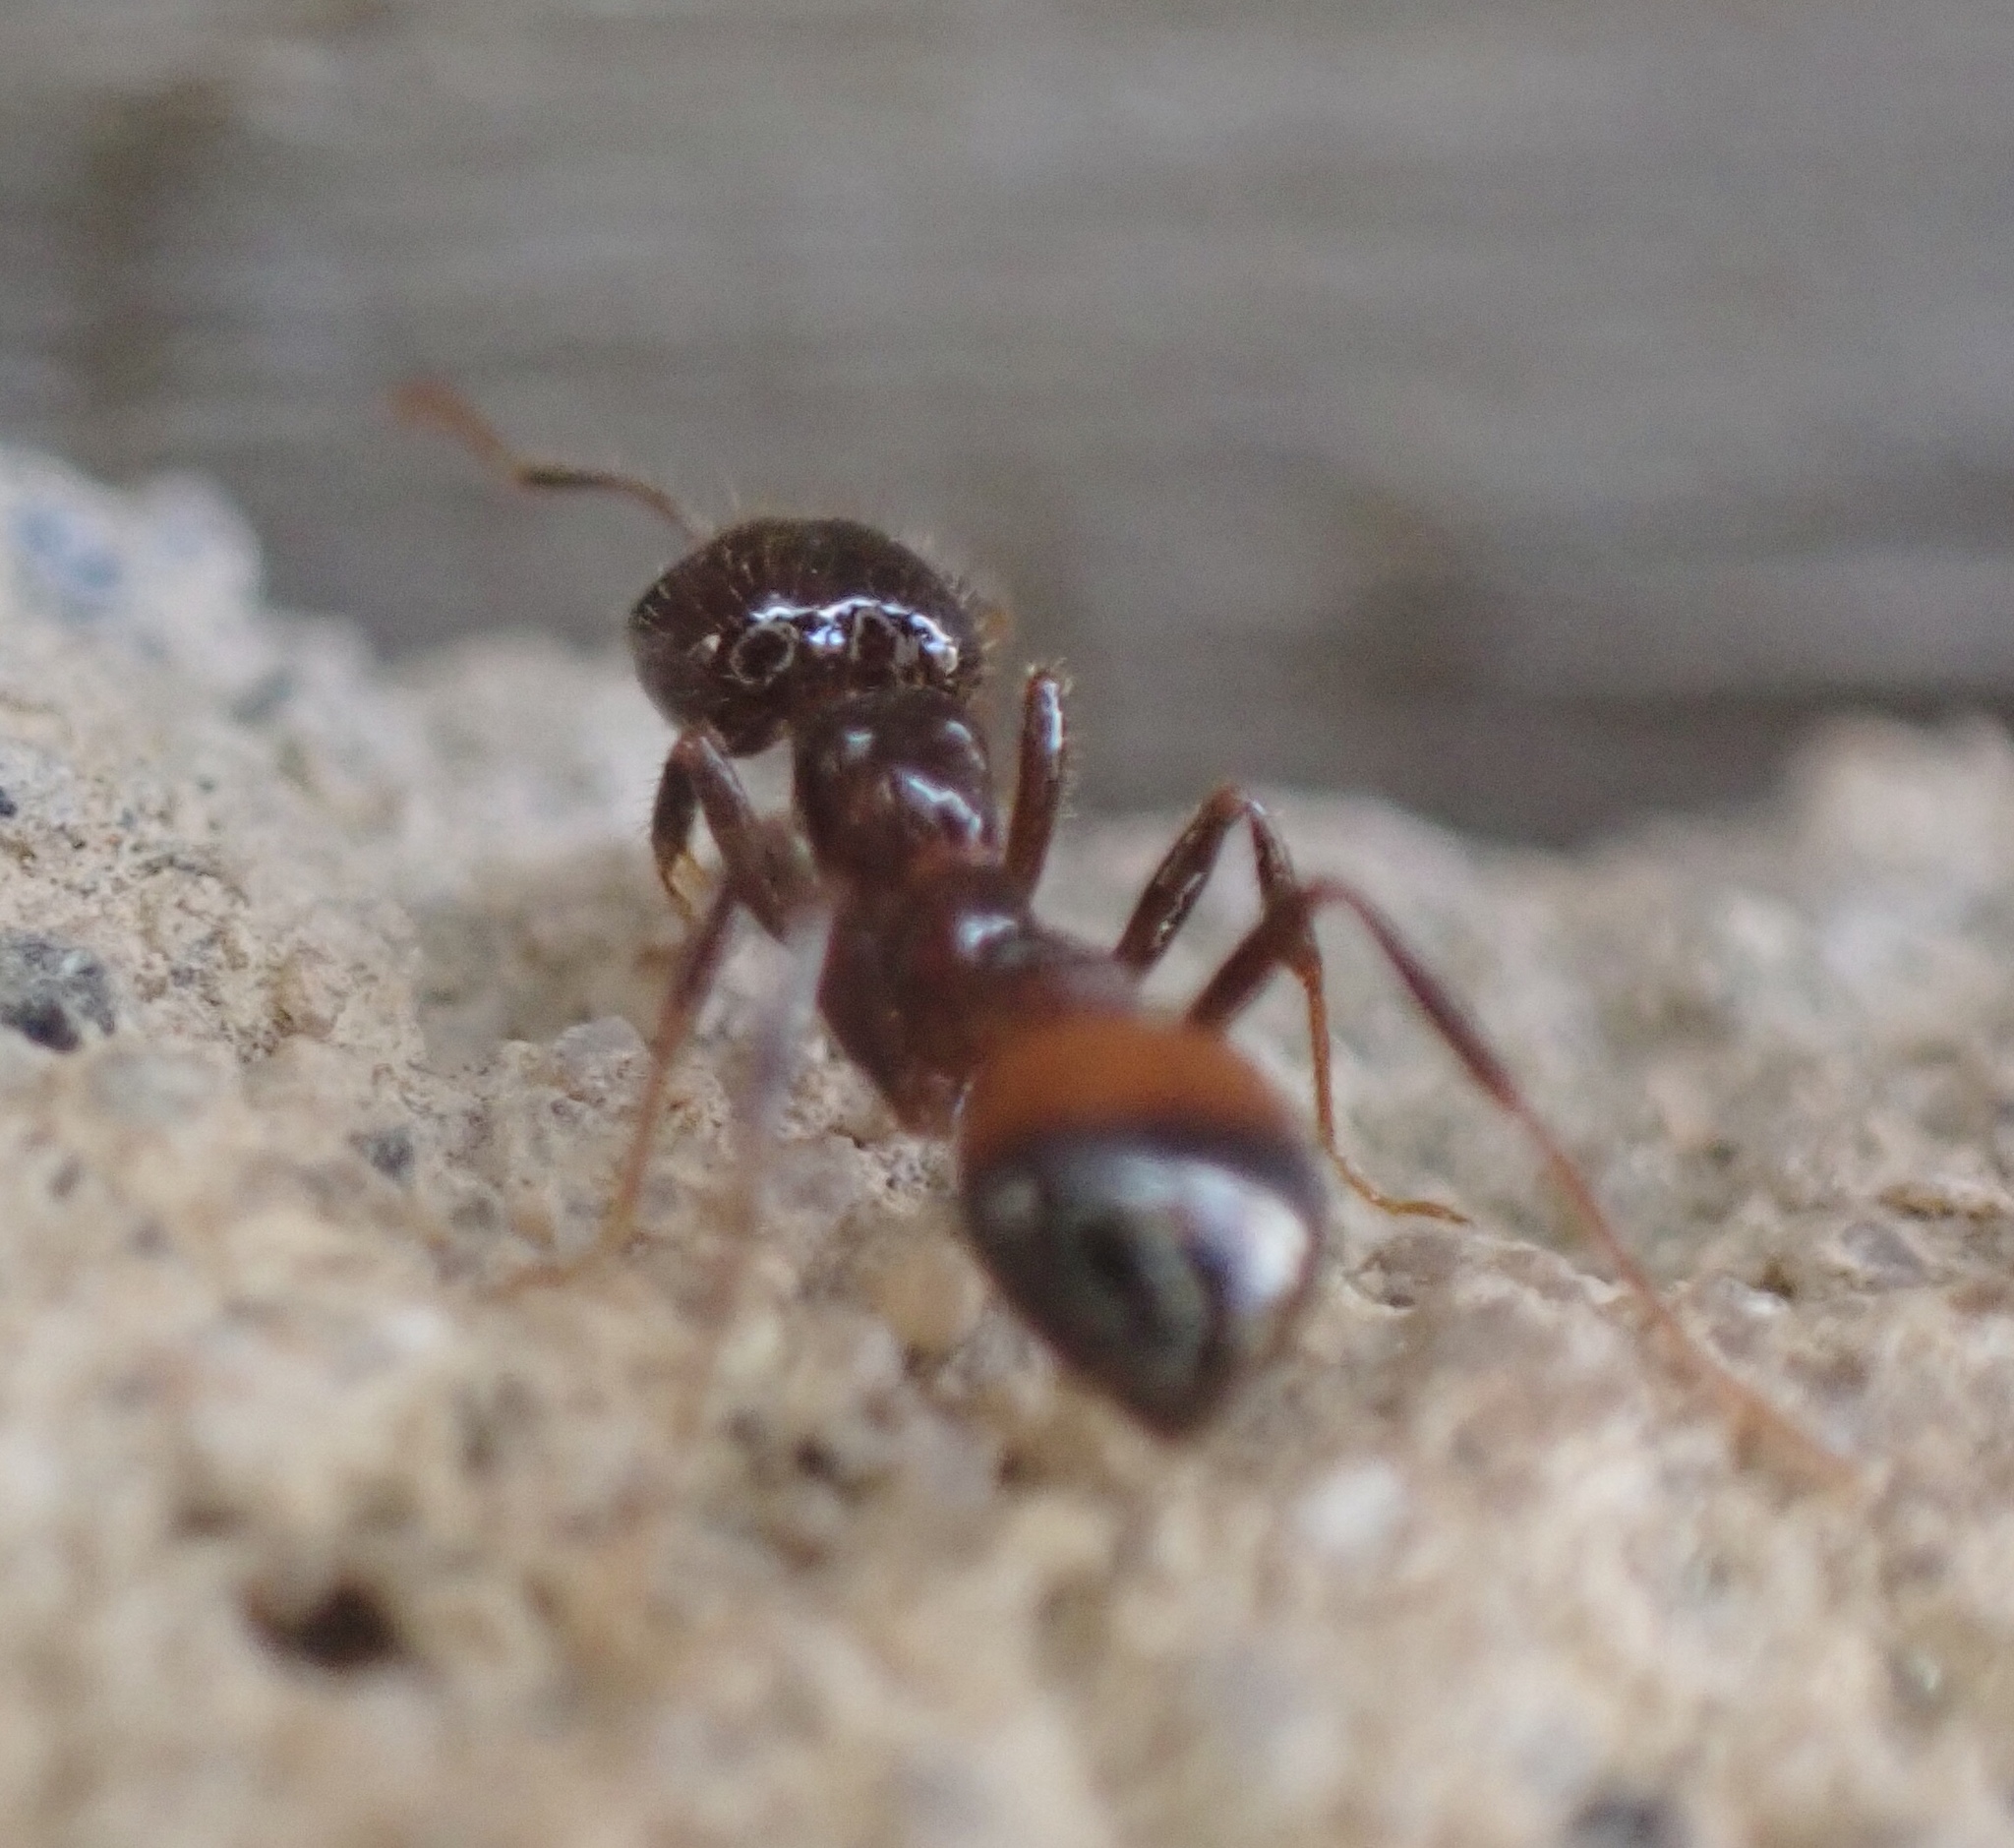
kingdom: Animalia
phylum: Arthropoda
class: Insecta
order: Hymenoptera
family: Formicidae
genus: Solenopsis
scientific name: Solenopsis
